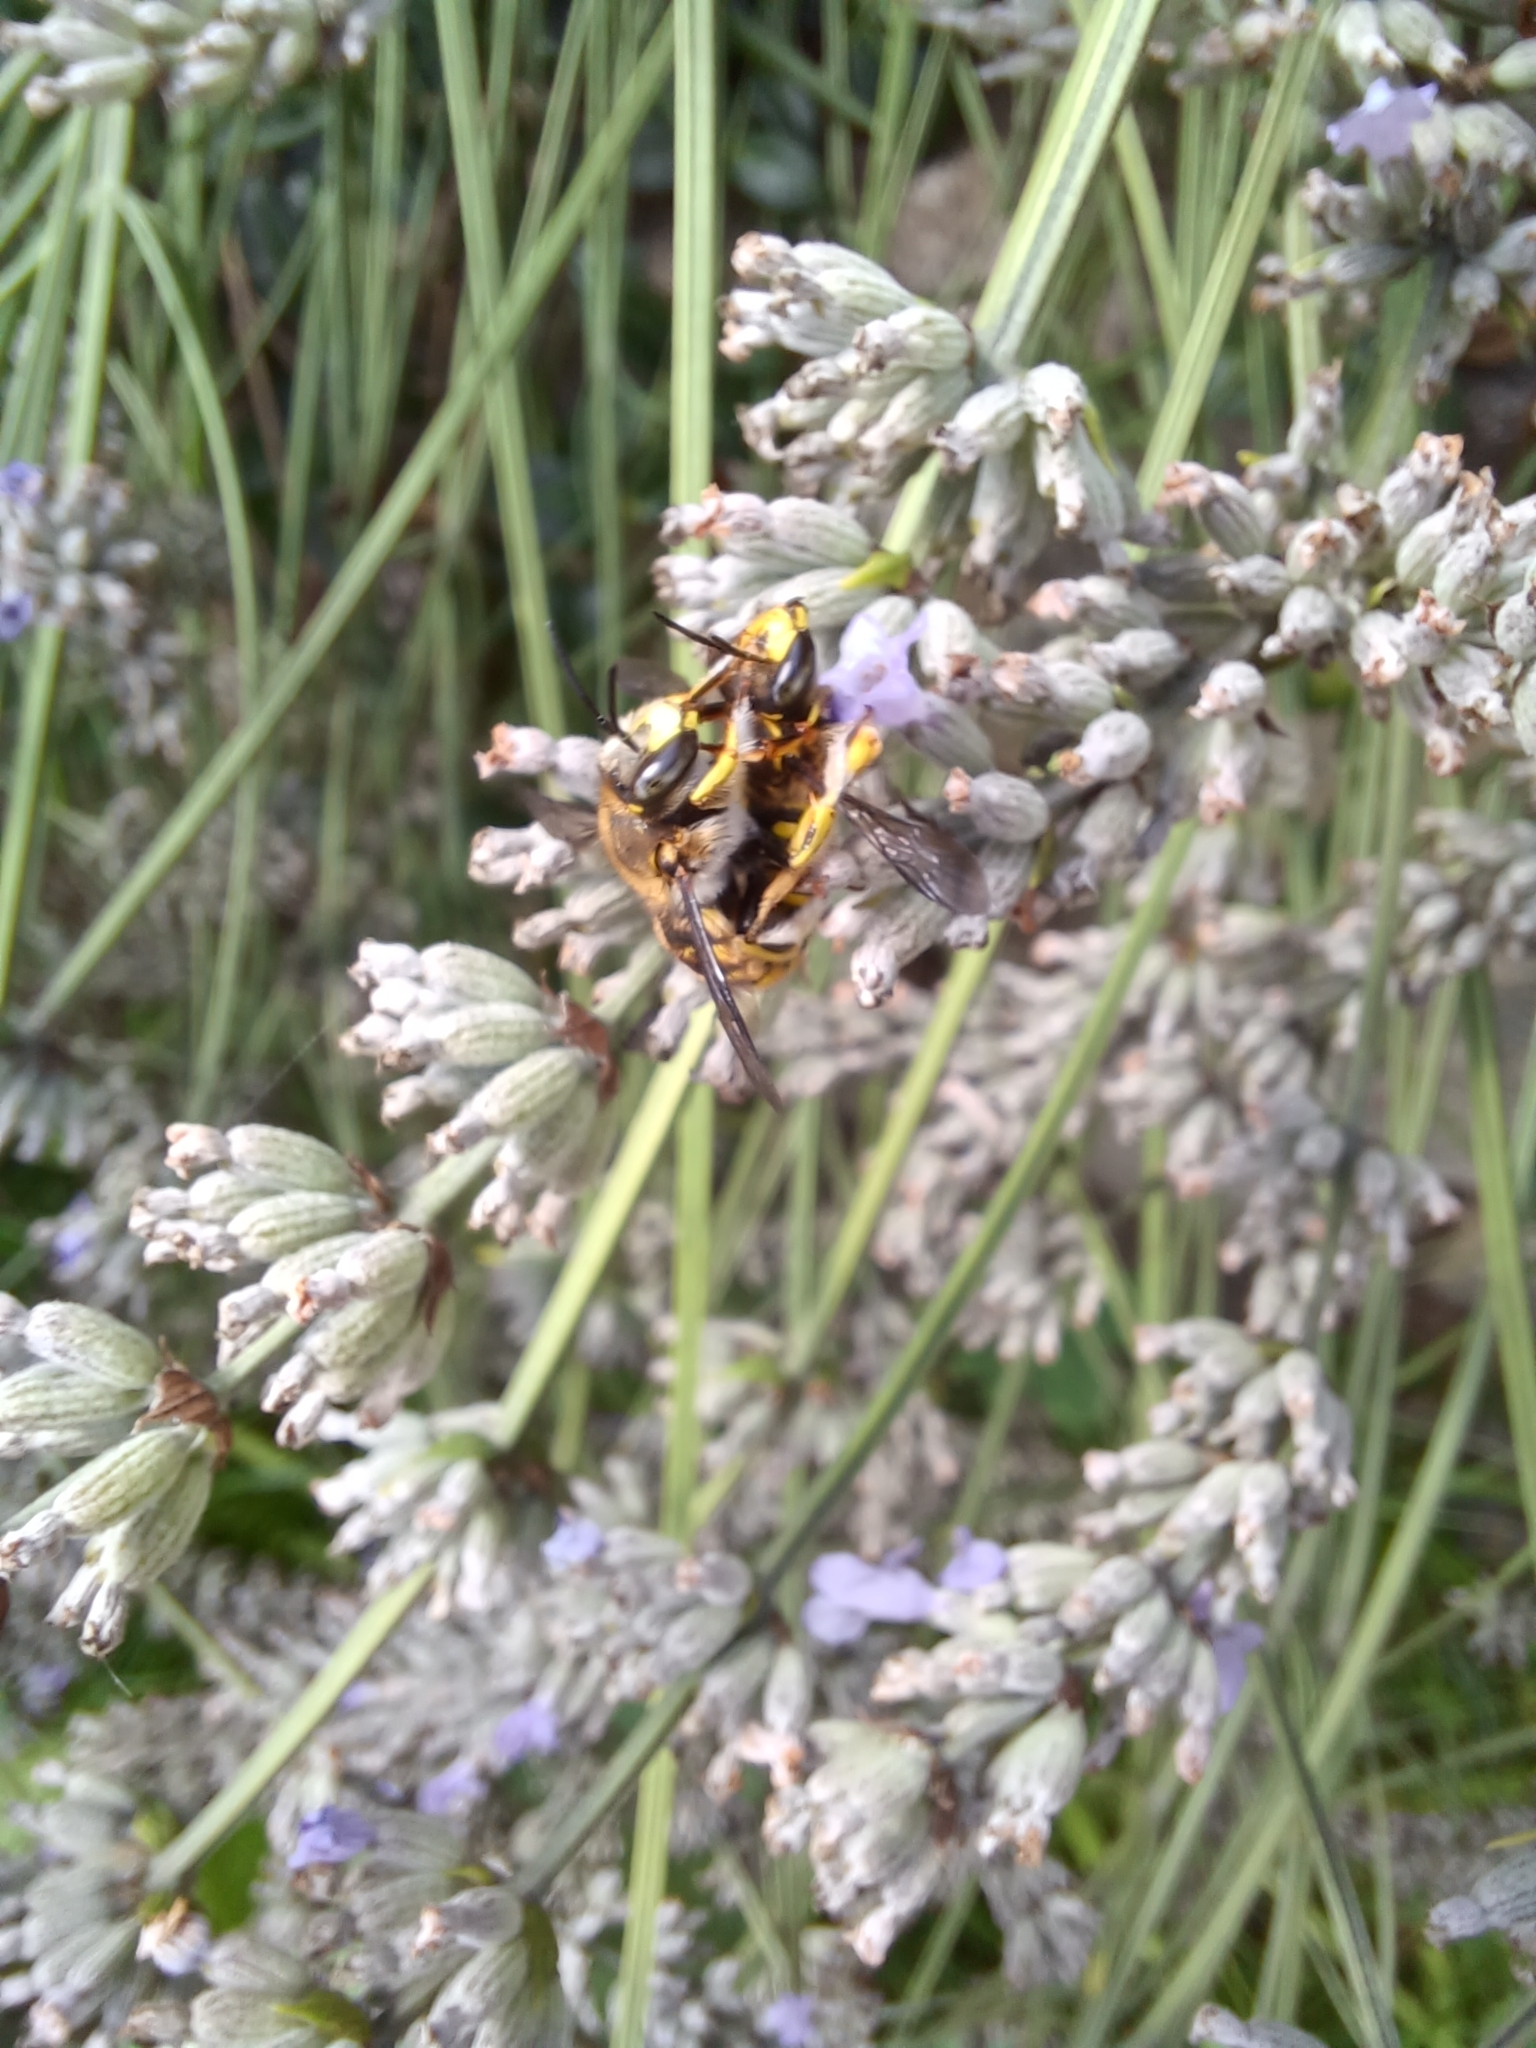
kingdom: Animalia
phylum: Arthropoda
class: Insecta
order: Hymenoptera
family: Megachilidae
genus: Anthidium
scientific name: Anthidium manicatum
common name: Wool carder bee
